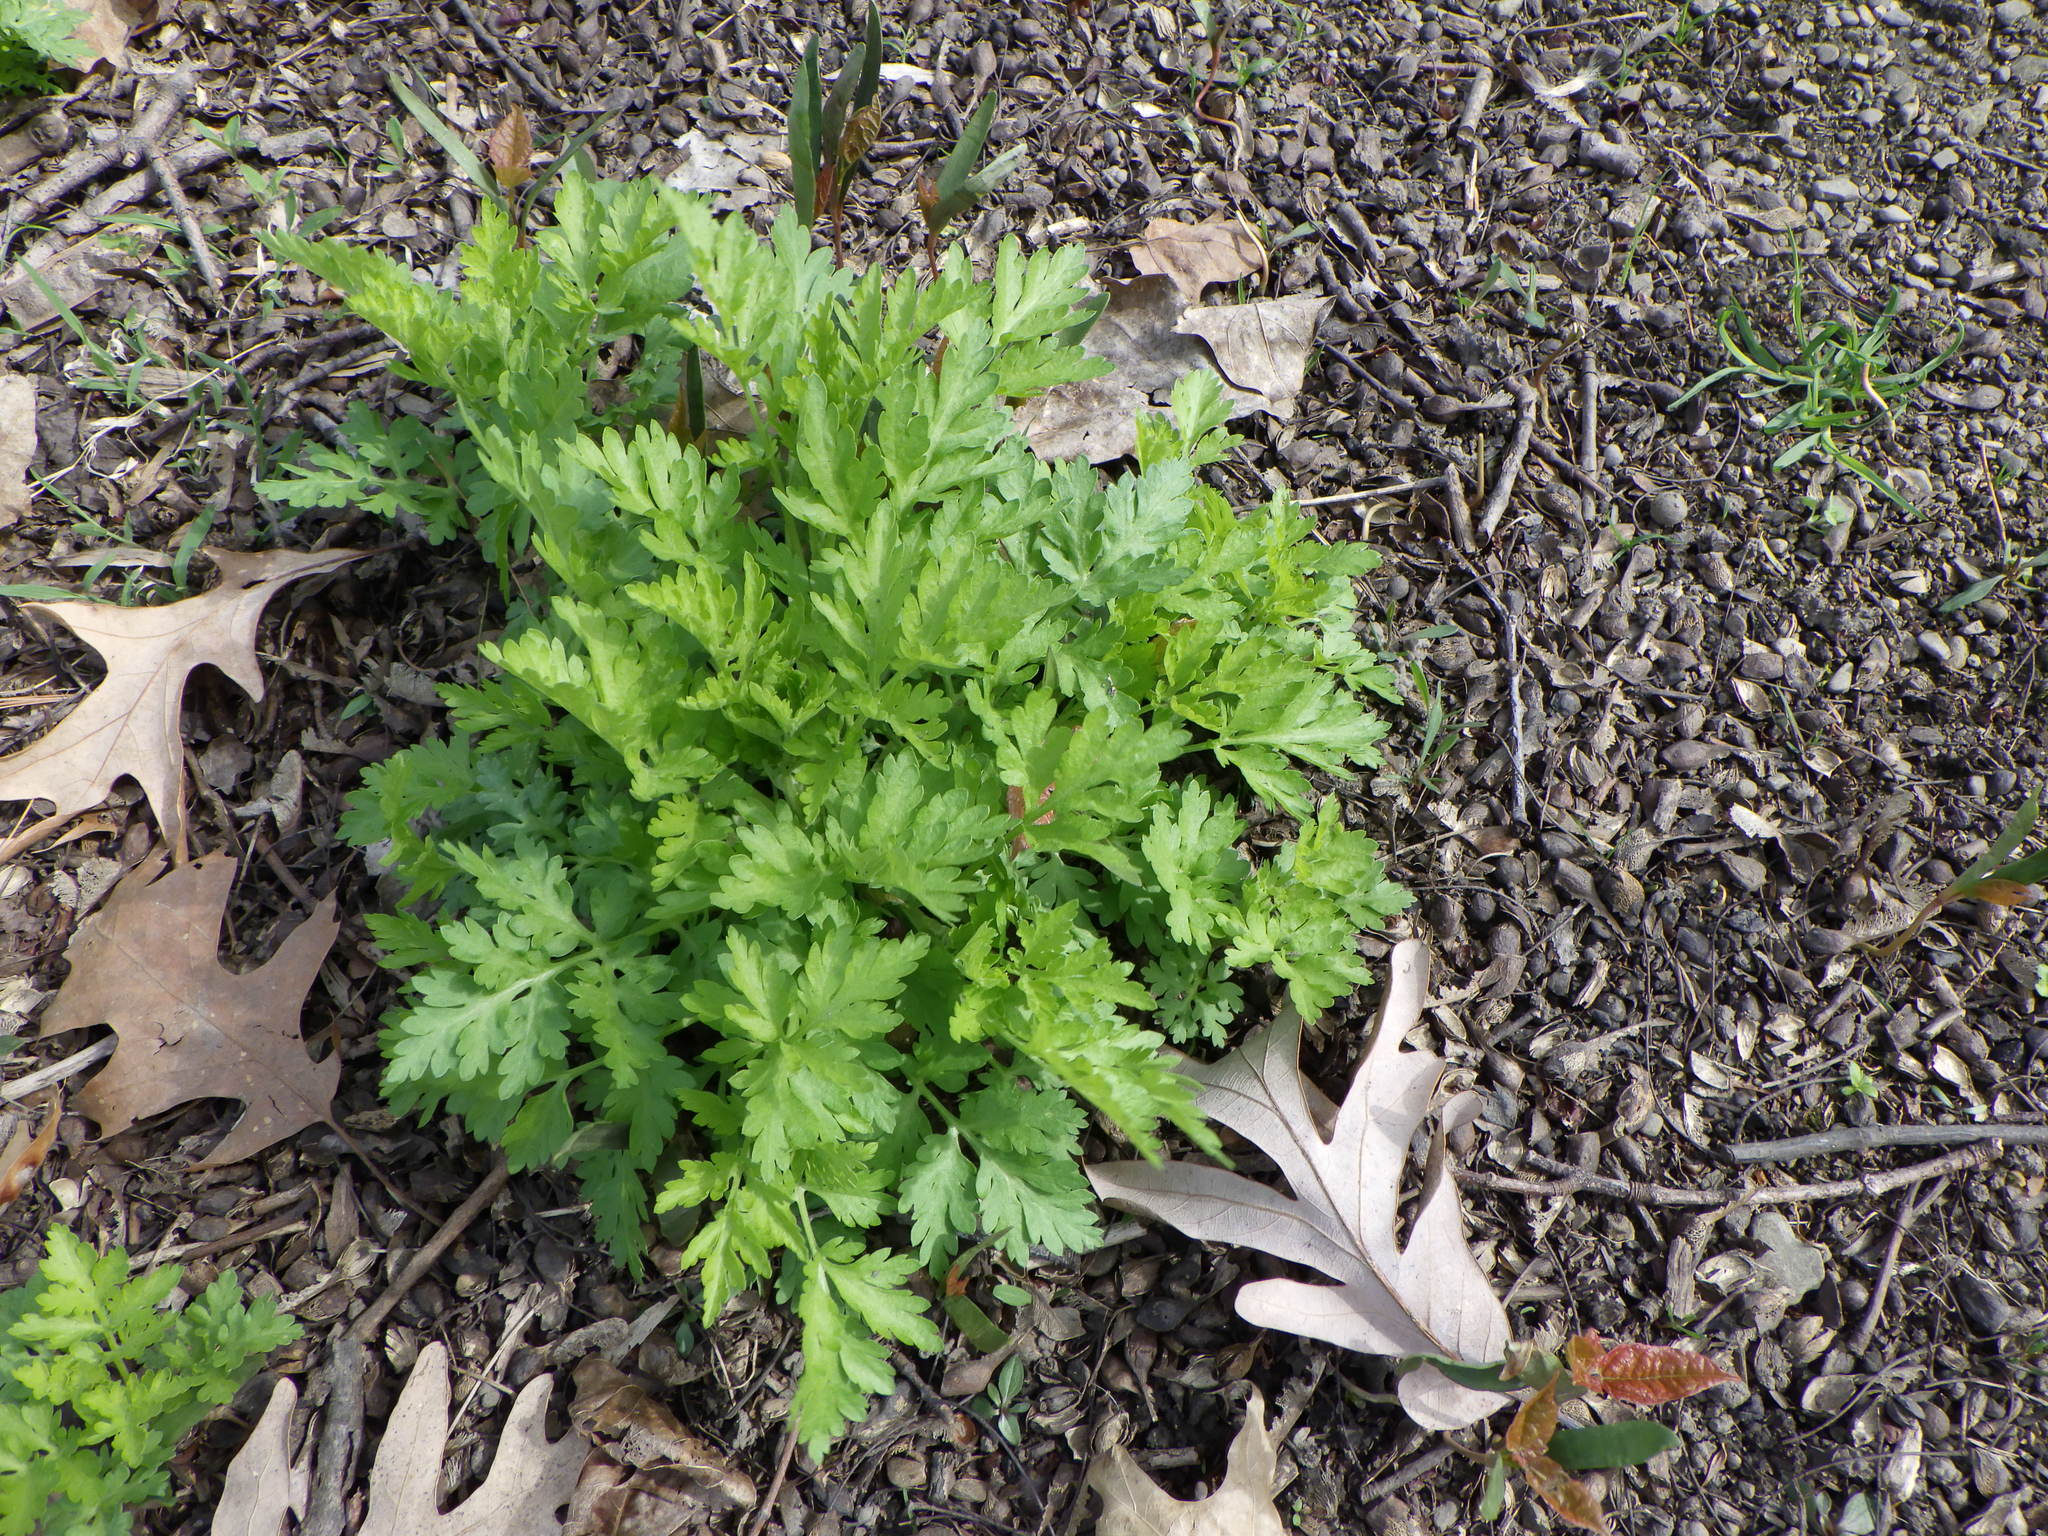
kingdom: Plantae
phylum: Tracheophyta
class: Magnoliopsida
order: Asterales
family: Asteraceae
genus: Tanacetum
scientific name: Tanacetum parthenium
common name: Feverfew
